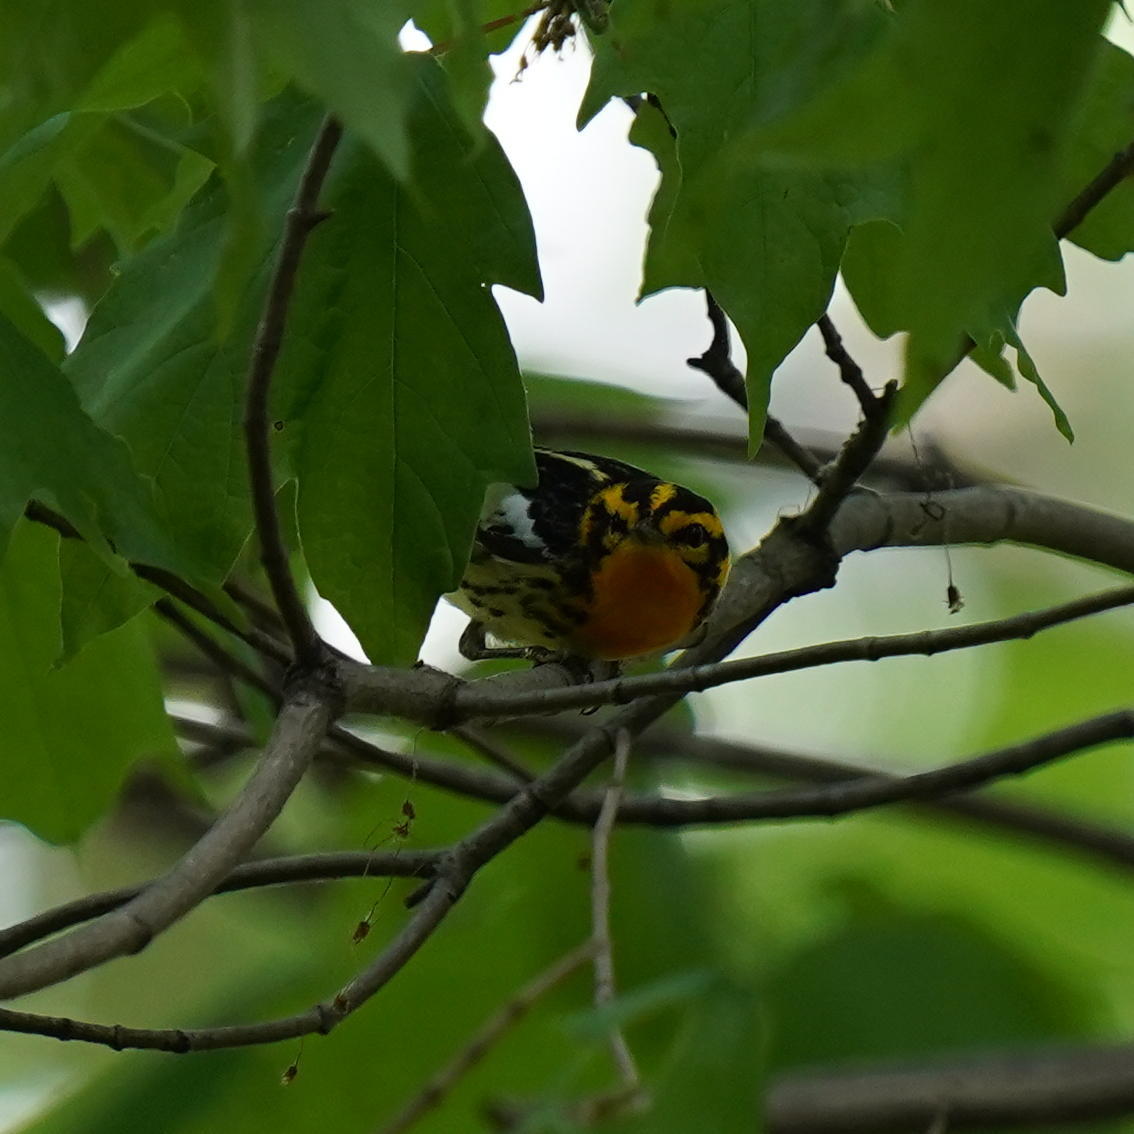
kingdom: Animalia
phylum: Chordata
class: Aves
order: Passeriformes
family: Parulidae
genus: Setophaga
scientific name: Setophaga fusca
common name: Blackburnian warbler
